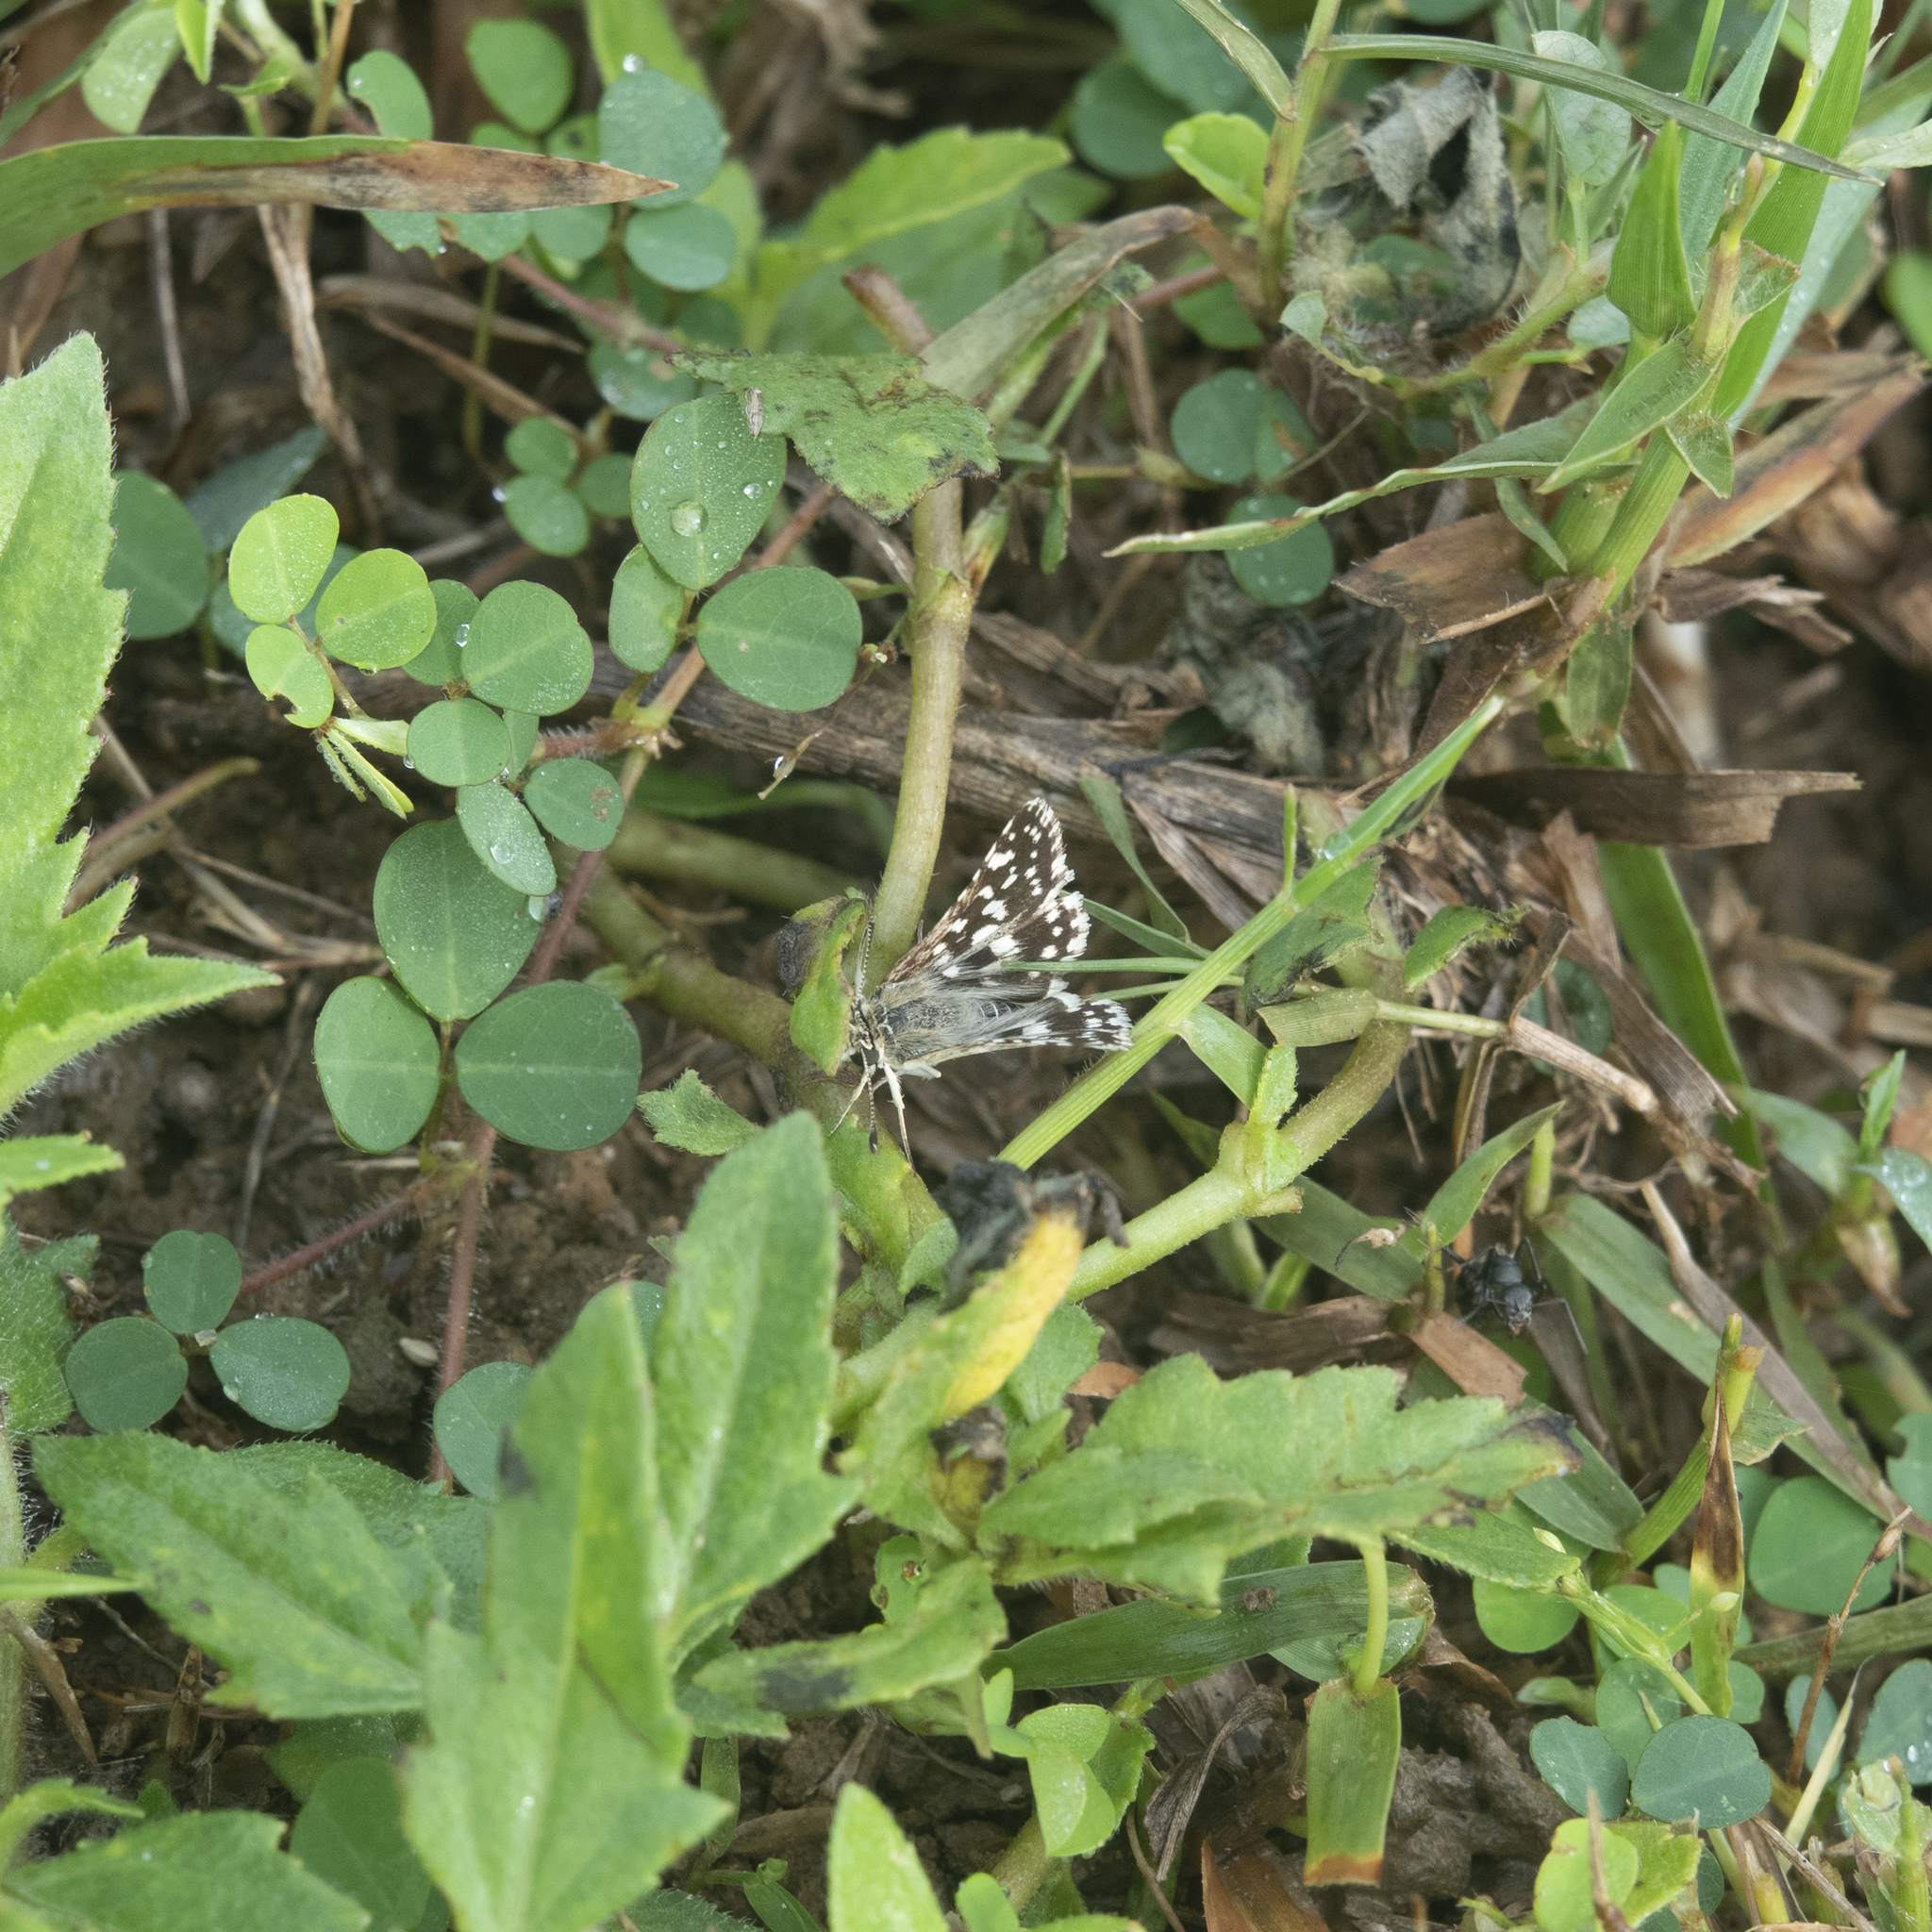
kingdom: Animalia
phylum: Arthropoda
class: Insecta
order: Lepidoptera
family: Hesperiidae
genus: Spialia
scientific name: Spialia galba
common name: Indian skipper
